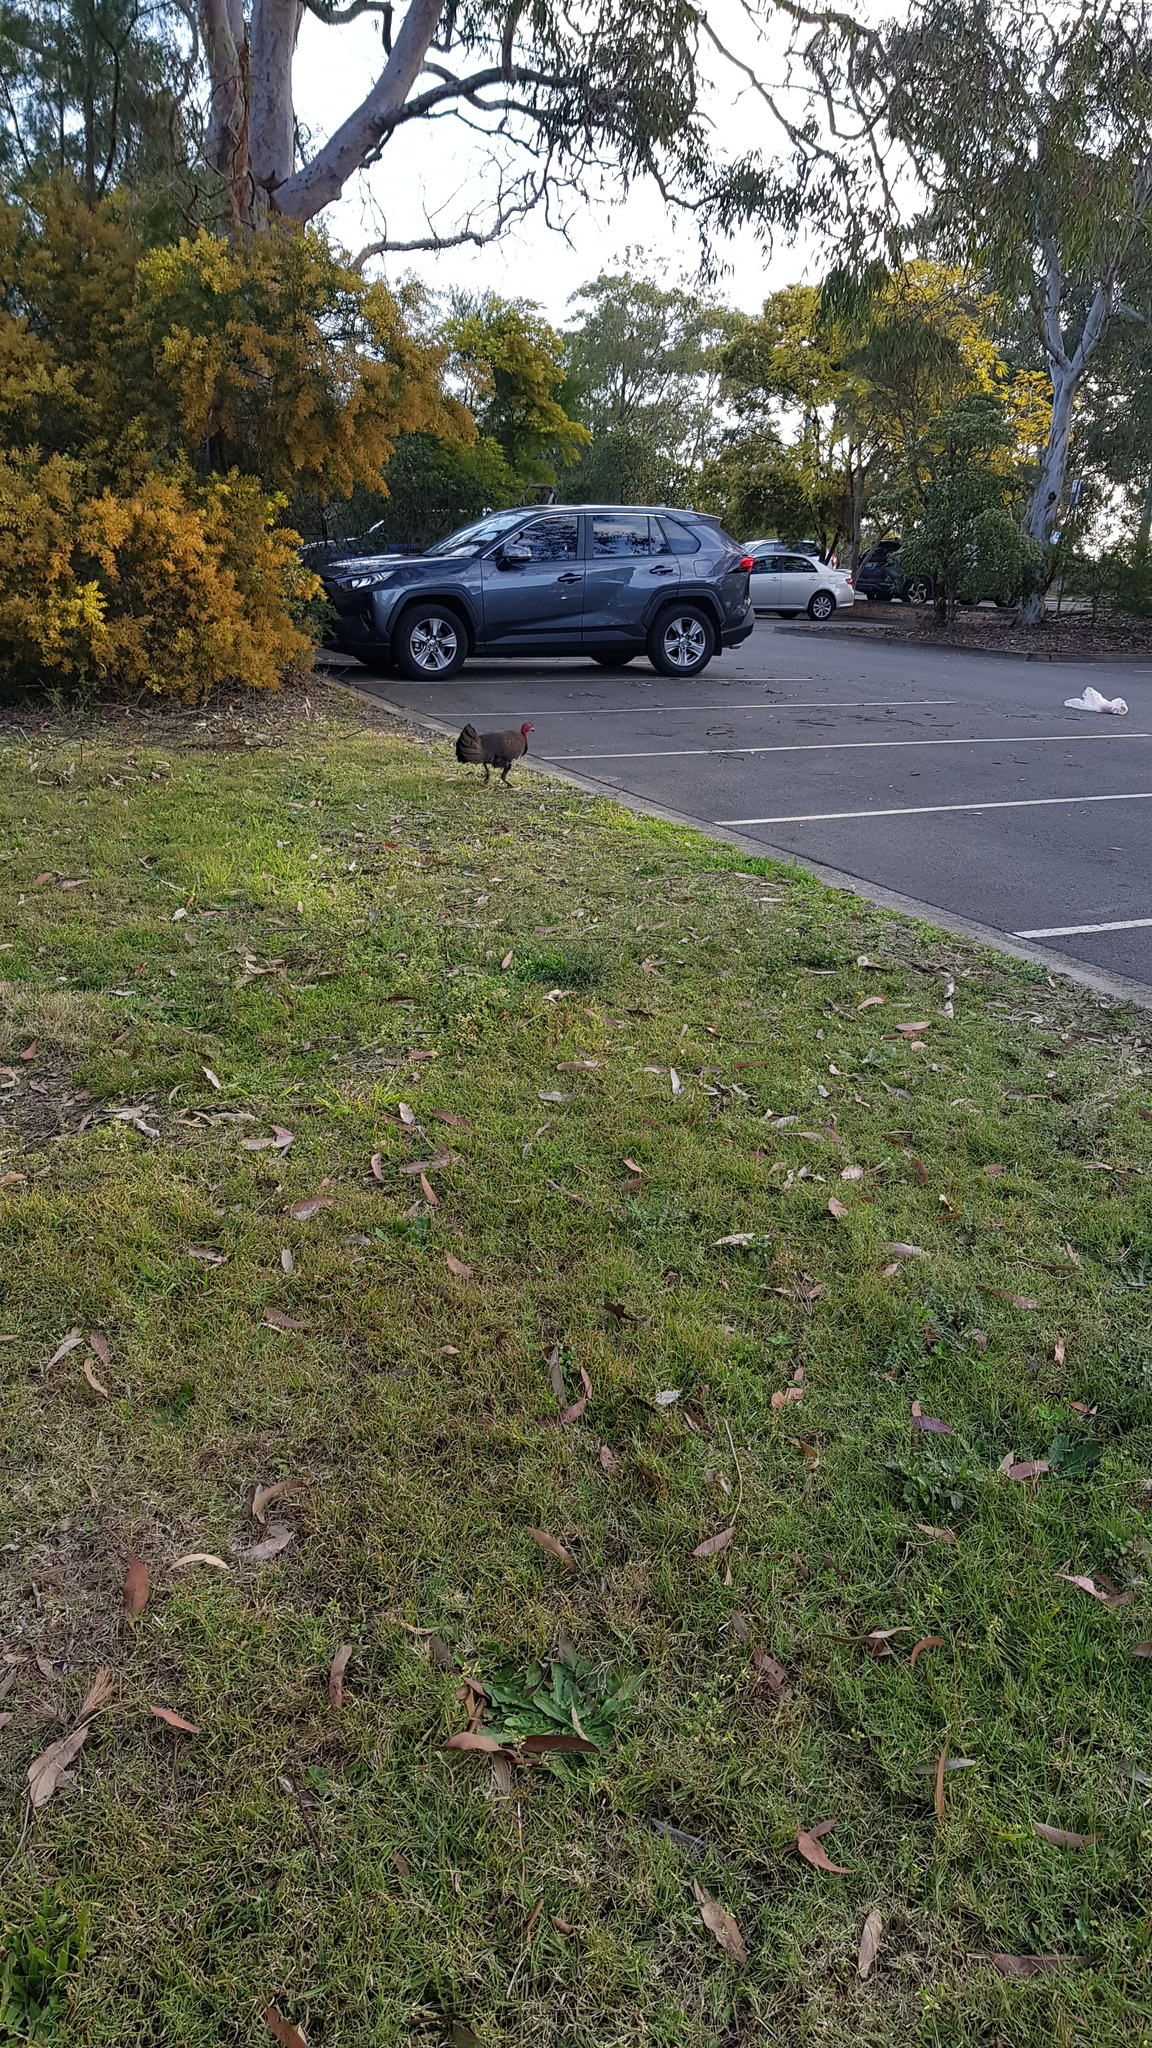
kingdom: Animalia
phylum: Chordata
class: Aves
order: Galliformes
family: Megapodiidae
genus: Alectura
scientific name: Alectura lathami
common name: Australian brushturkey
